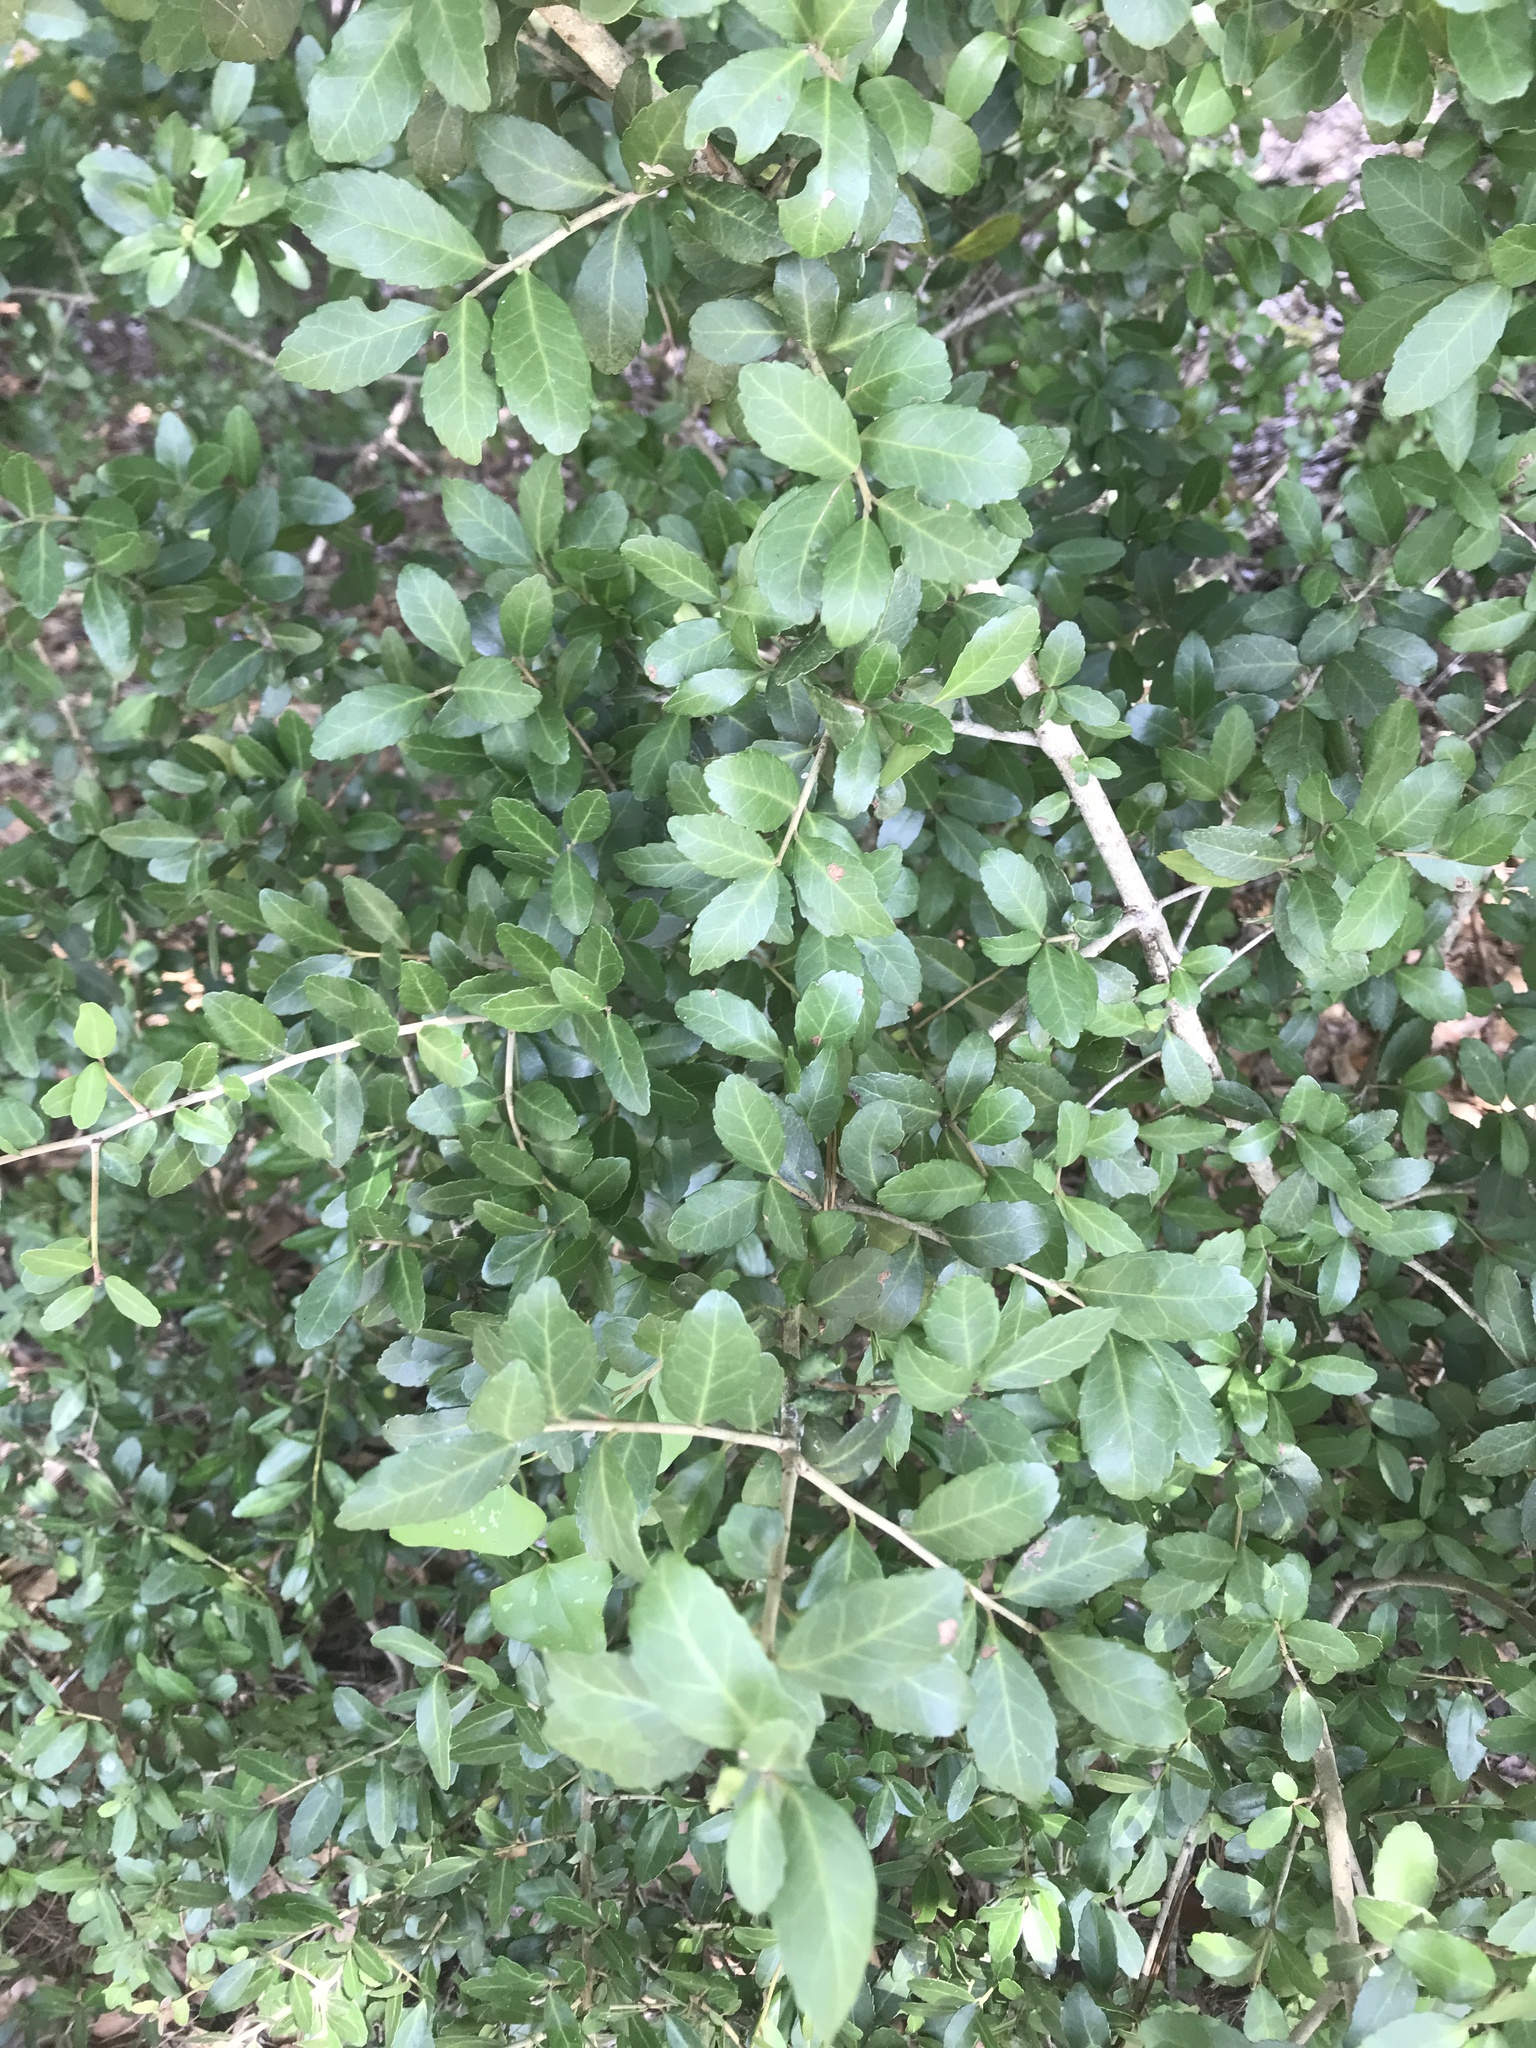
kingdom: Plantae
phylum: Tracheophyta
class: Magnoliopsida
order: Aquifoliales
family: Aquifoliaceae
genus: Ilex
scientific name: Ilex vomitoria
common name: Yaupon holly
